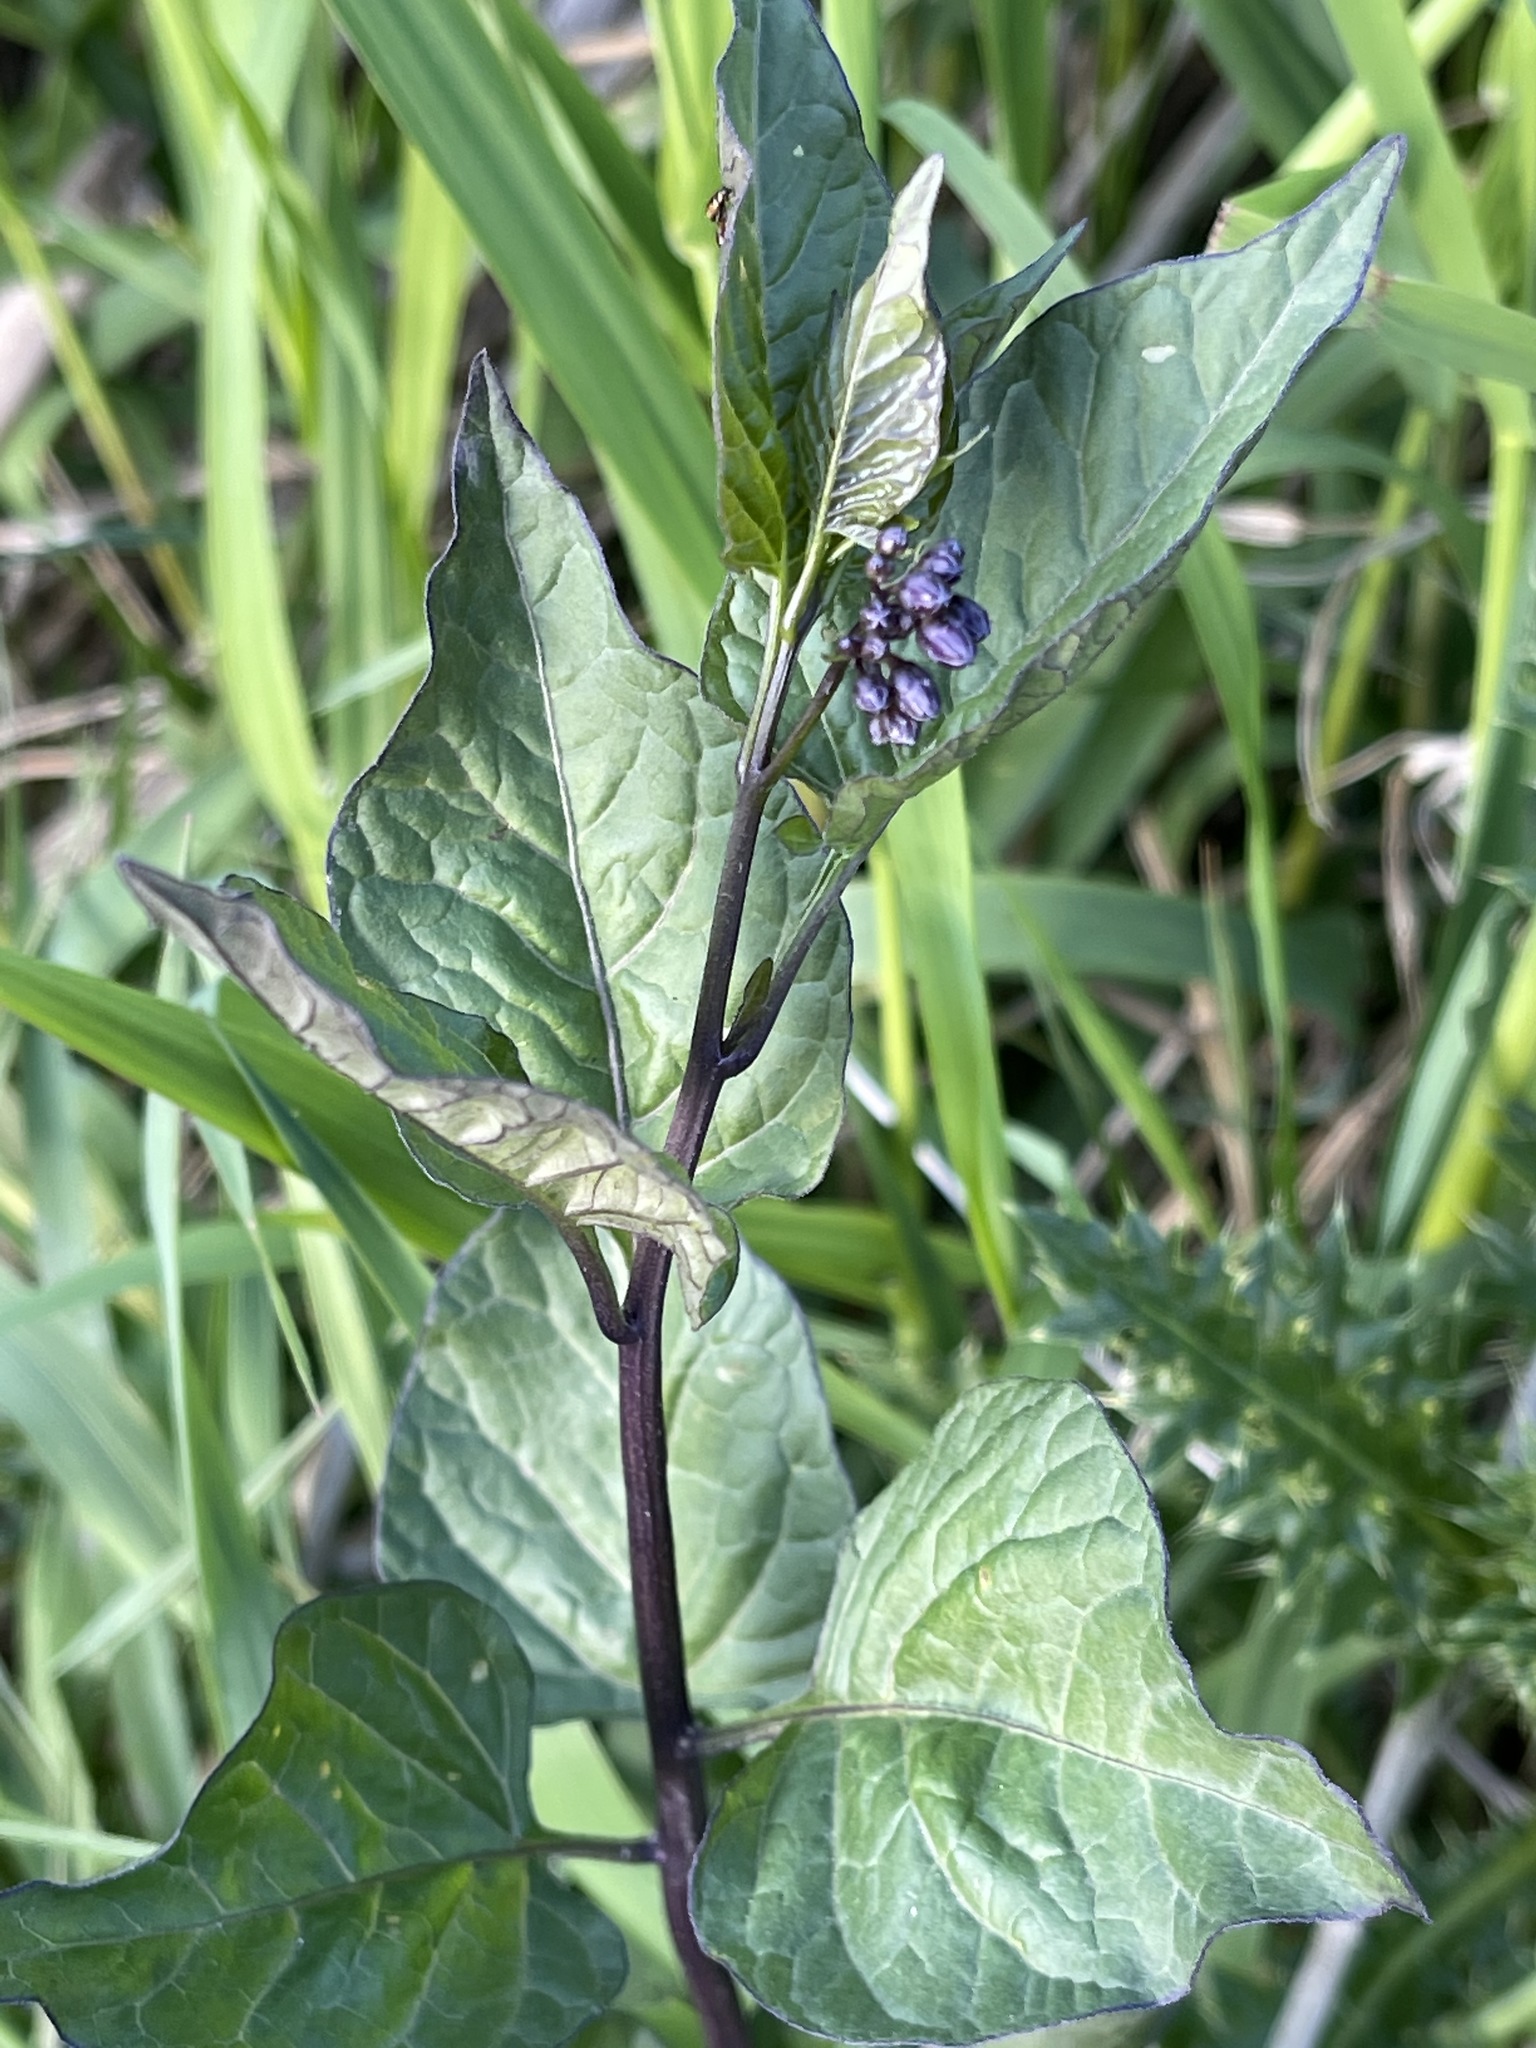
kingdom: Plantae
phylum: Tracheophyta
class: Magnoliopsida
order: Solanales
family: Solanaceae
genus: Solanum
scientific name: Solanum dulcamara
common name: Climbing nightshade
